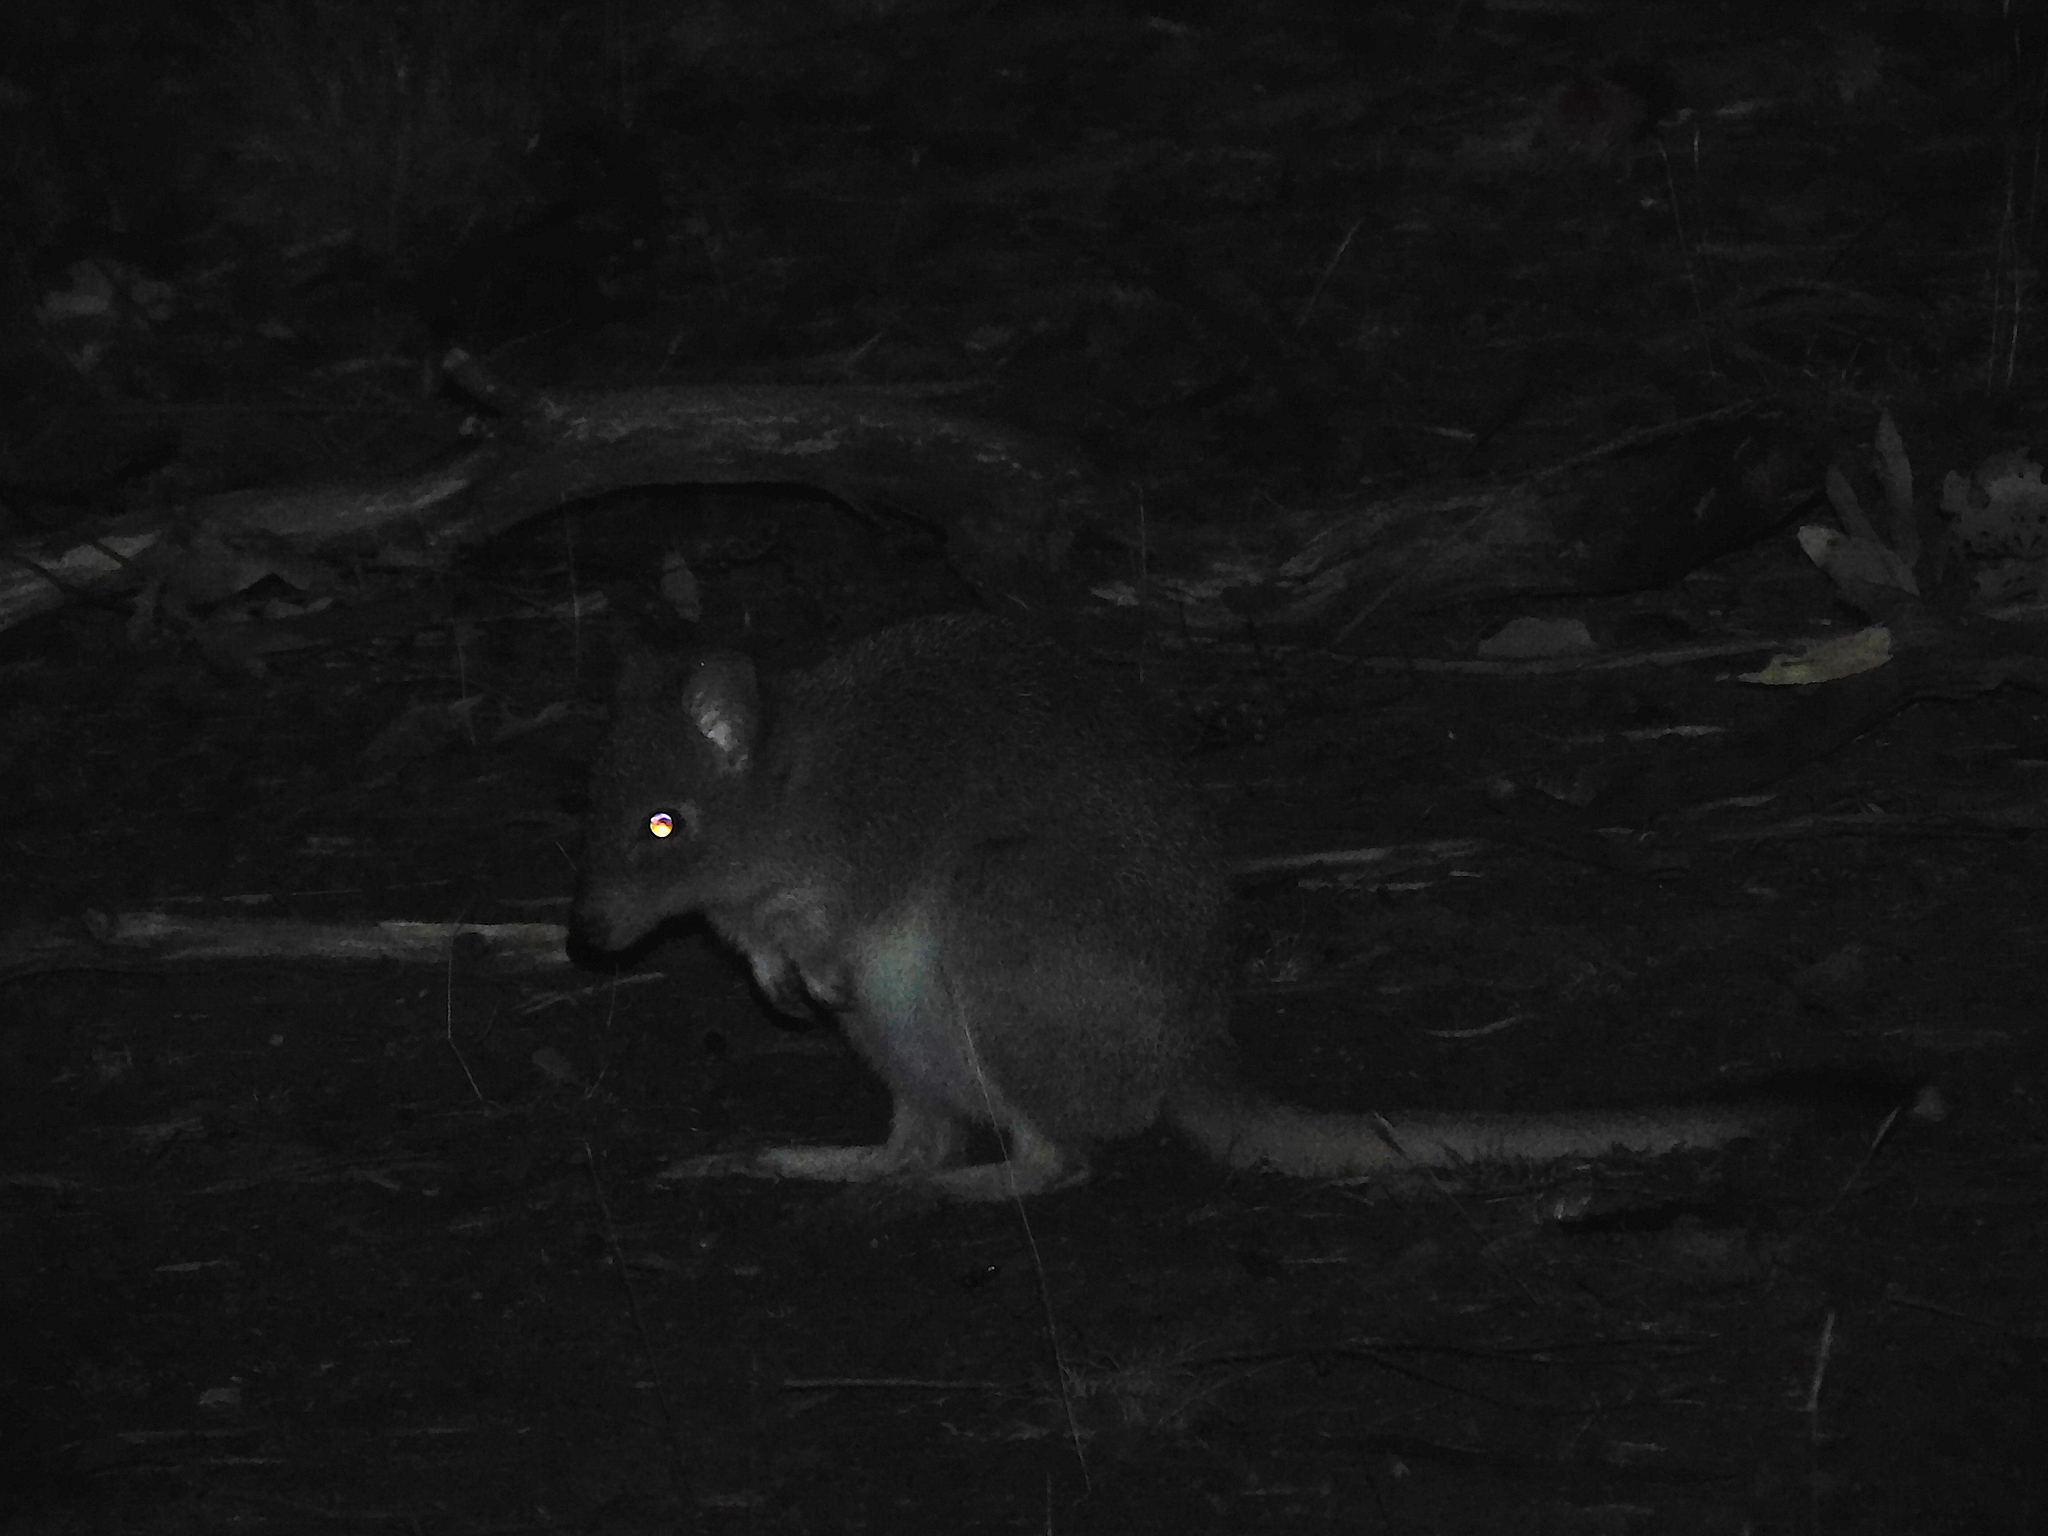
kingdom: Animalia
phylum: Chordata
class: Mammalia
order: Diprotodontia
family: Potoroidae
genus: Bettongia
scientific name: Bettongia gaimardi
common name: Eastern bettong
